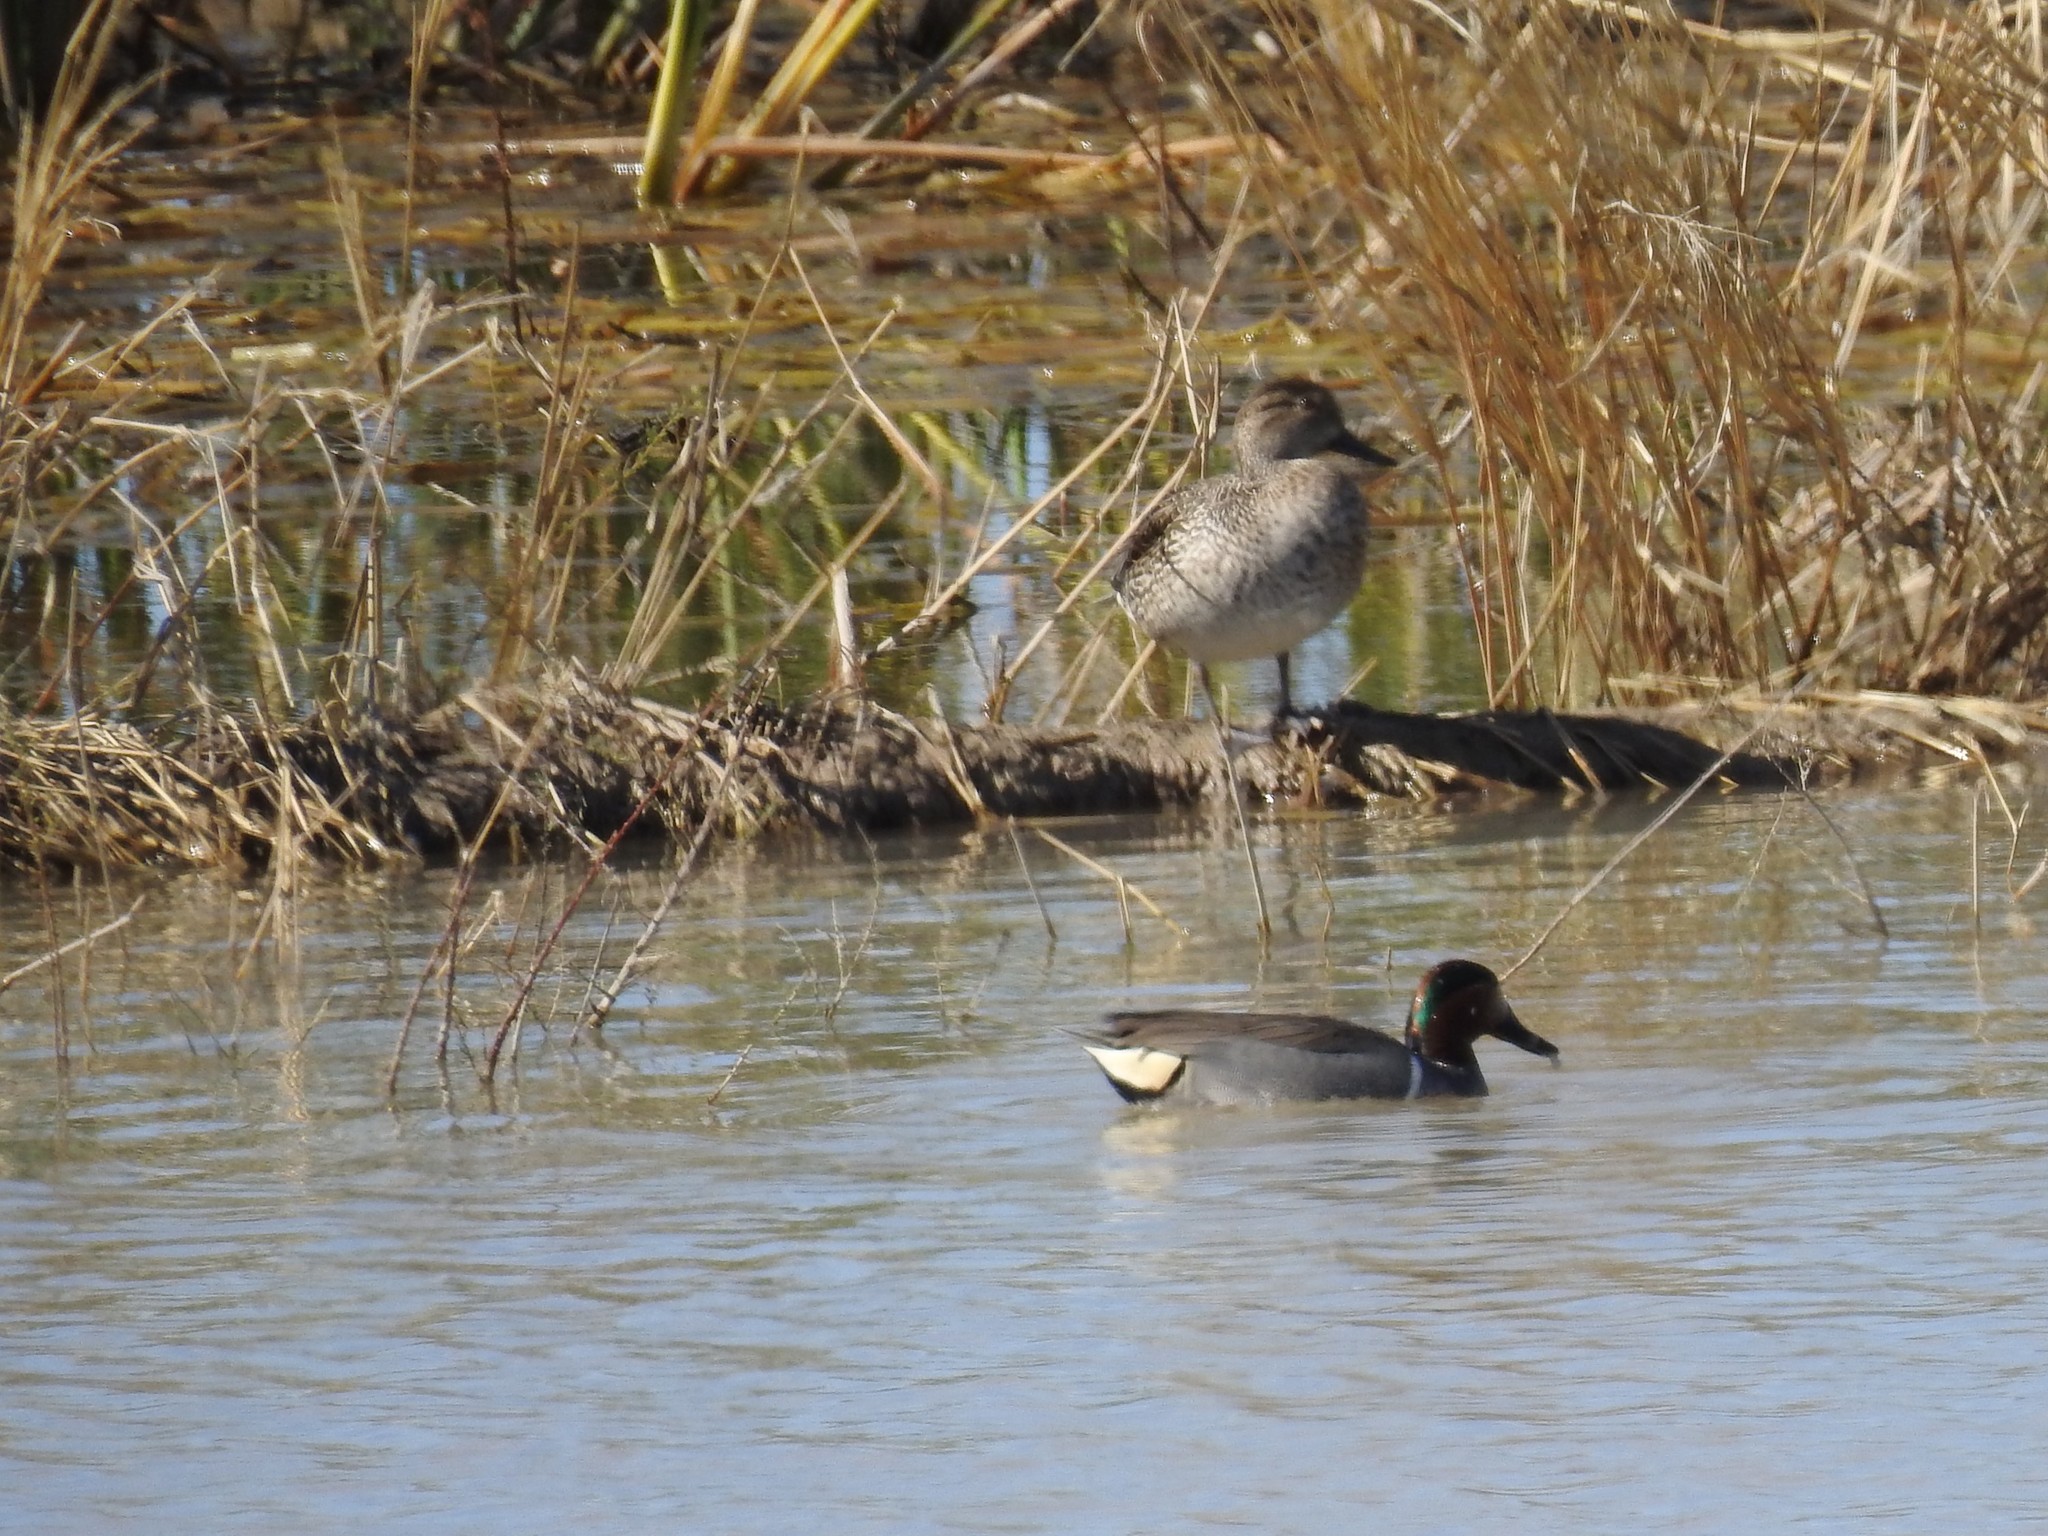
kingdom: Animalia
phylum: Chordata
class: Aves
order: Anseriformes
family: Anatidae
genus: Anas
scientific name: Anas crecca
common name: Eurasian teal
